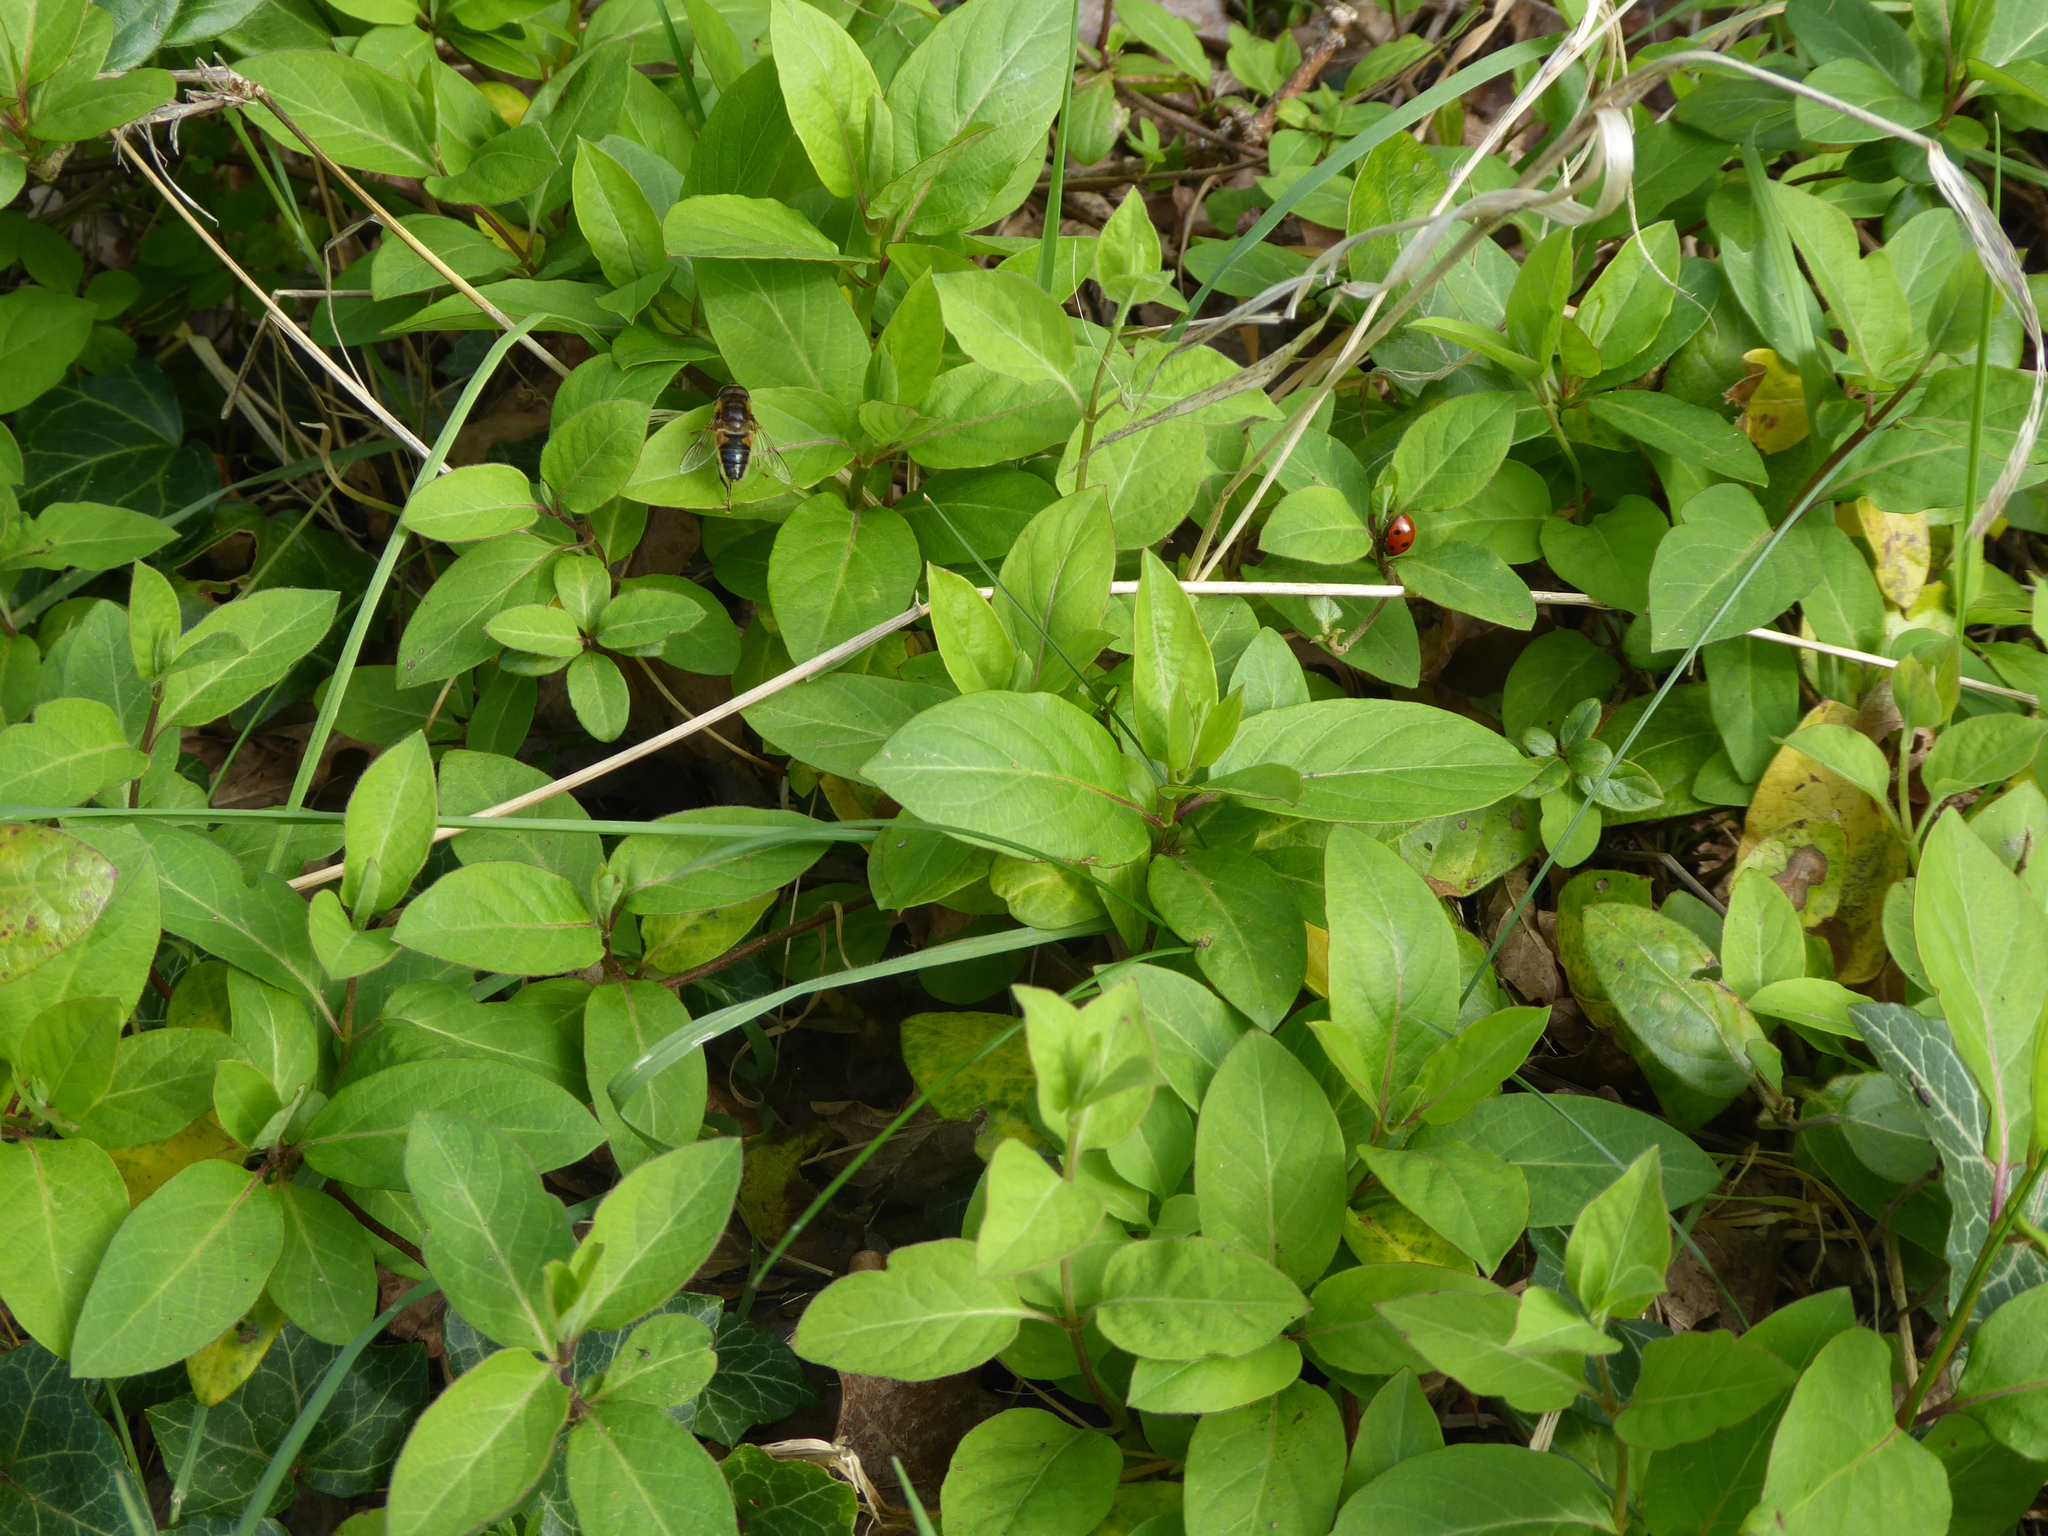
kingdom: Plantae
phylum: Tracheophyta
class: Magnoliopsida
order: Dipsacales
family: Caprifoliaceae
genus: Lonicera
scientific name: Lonicera japonica
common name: Japanese honeysuckle
